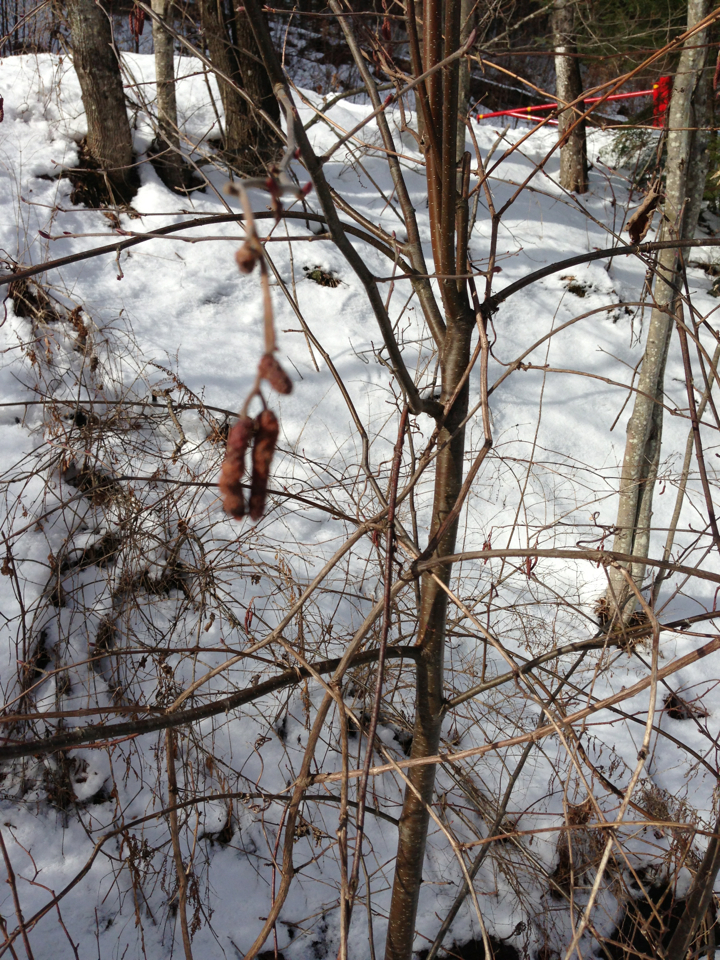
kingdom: Plantae
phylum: Tracheophyta
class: Magnoliopsida
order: Fagales
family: Betulaceae
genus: Alnus
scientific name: Alnus incana
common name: Grey alder
